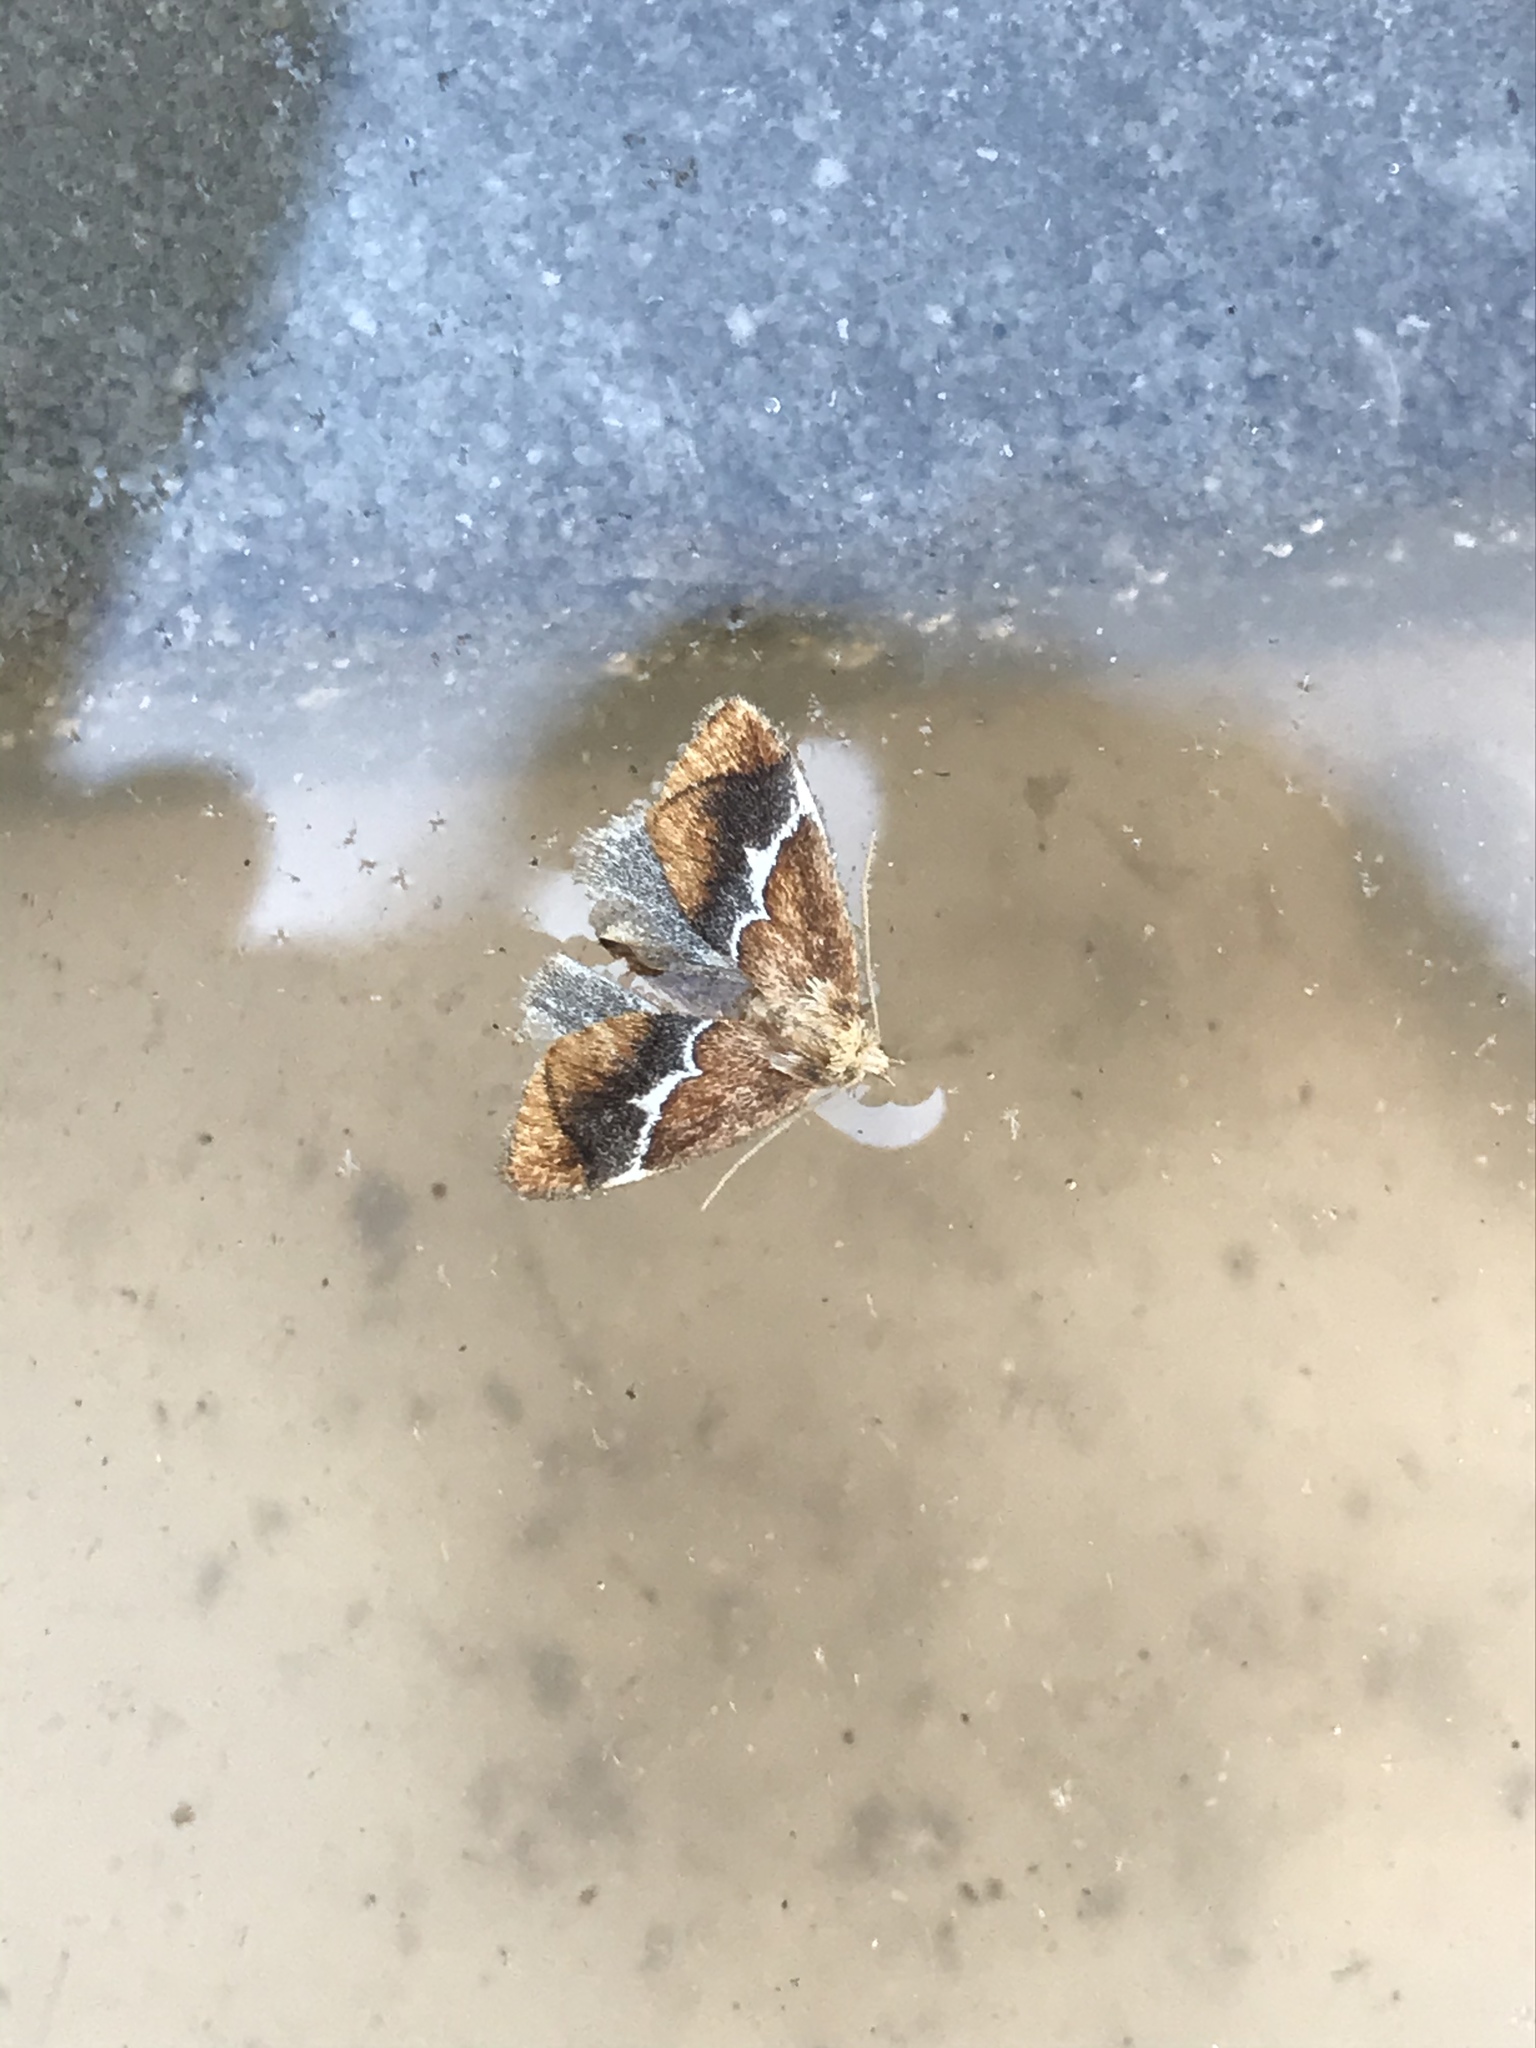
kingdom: Animalia
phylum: Arthropoda
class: Insecta
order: Lepidoptera
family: Limacodidae
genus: Lithacodes
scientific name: Lithacodes fasciola
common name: Yellow-shouldered slug moth
